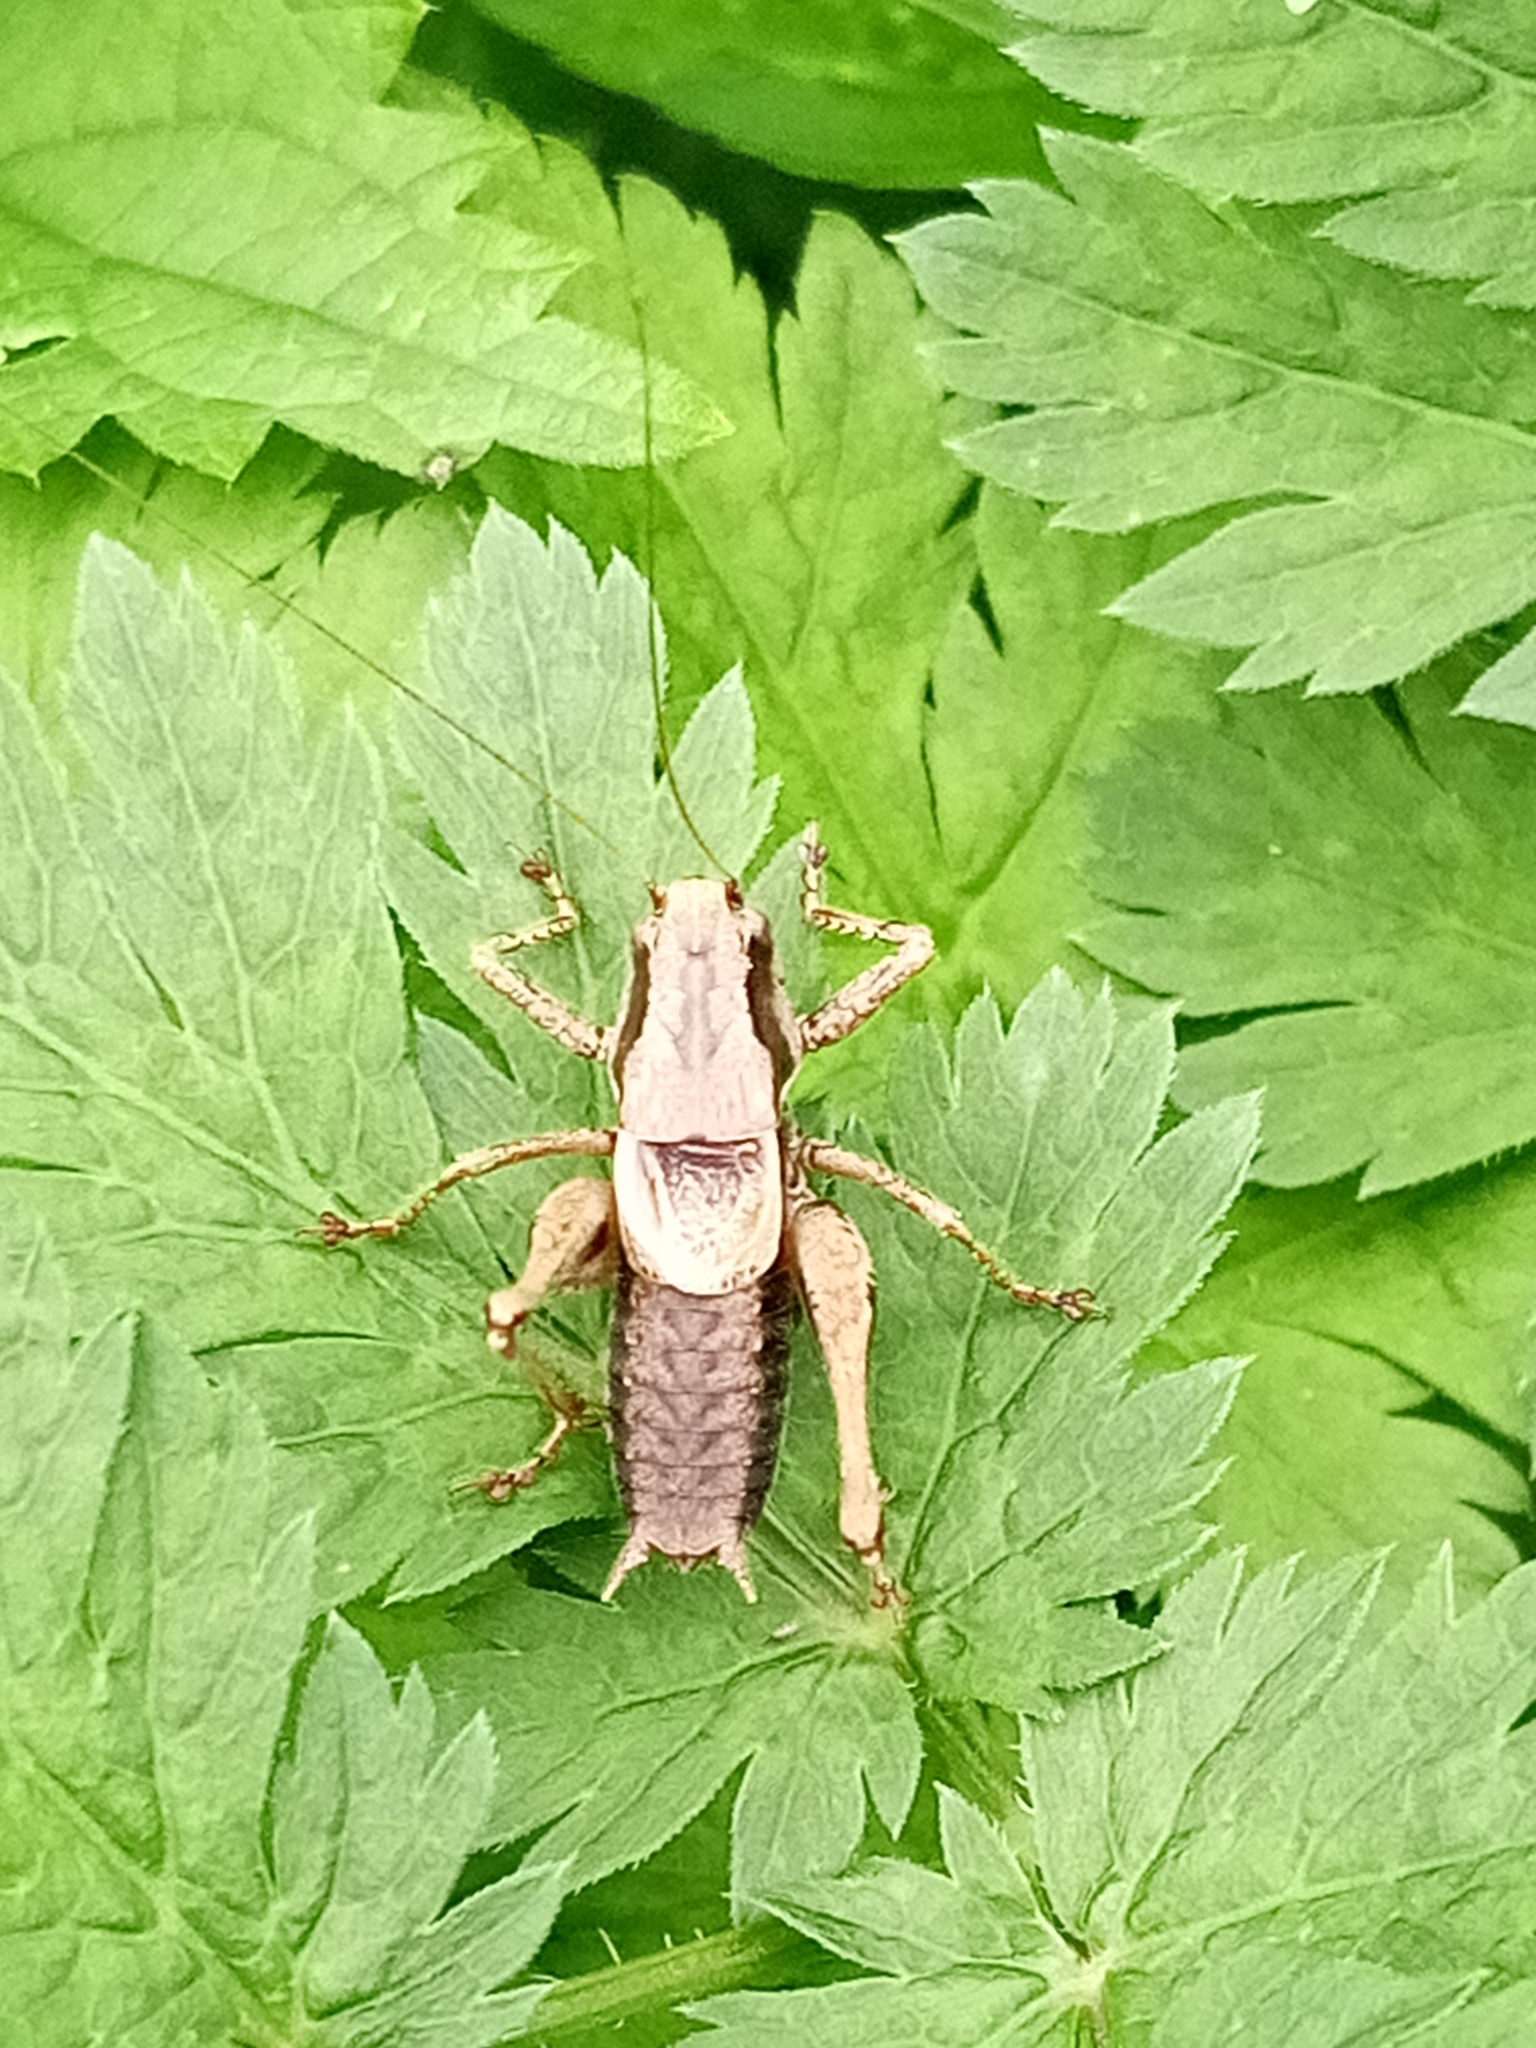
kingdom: Animalia
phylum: Arthropoda
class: Insecta
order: Orthoptera
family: Tettigoniidae
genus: Pholidoptera
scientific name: Pholidoptera griseoaptera
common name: Dark bush-cricket
